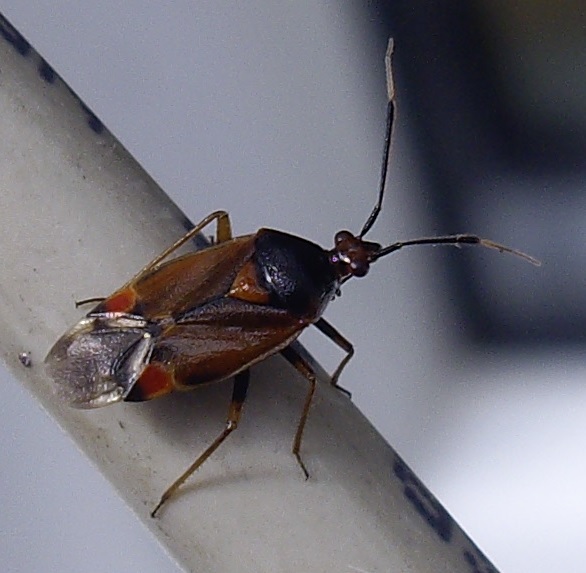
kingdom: Animalia
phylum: Arthropoda
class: Insecta
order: Hemiptera
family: Miridae
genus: Deraeocoris
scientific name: Deraeocoris ruber
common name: Plant bug
